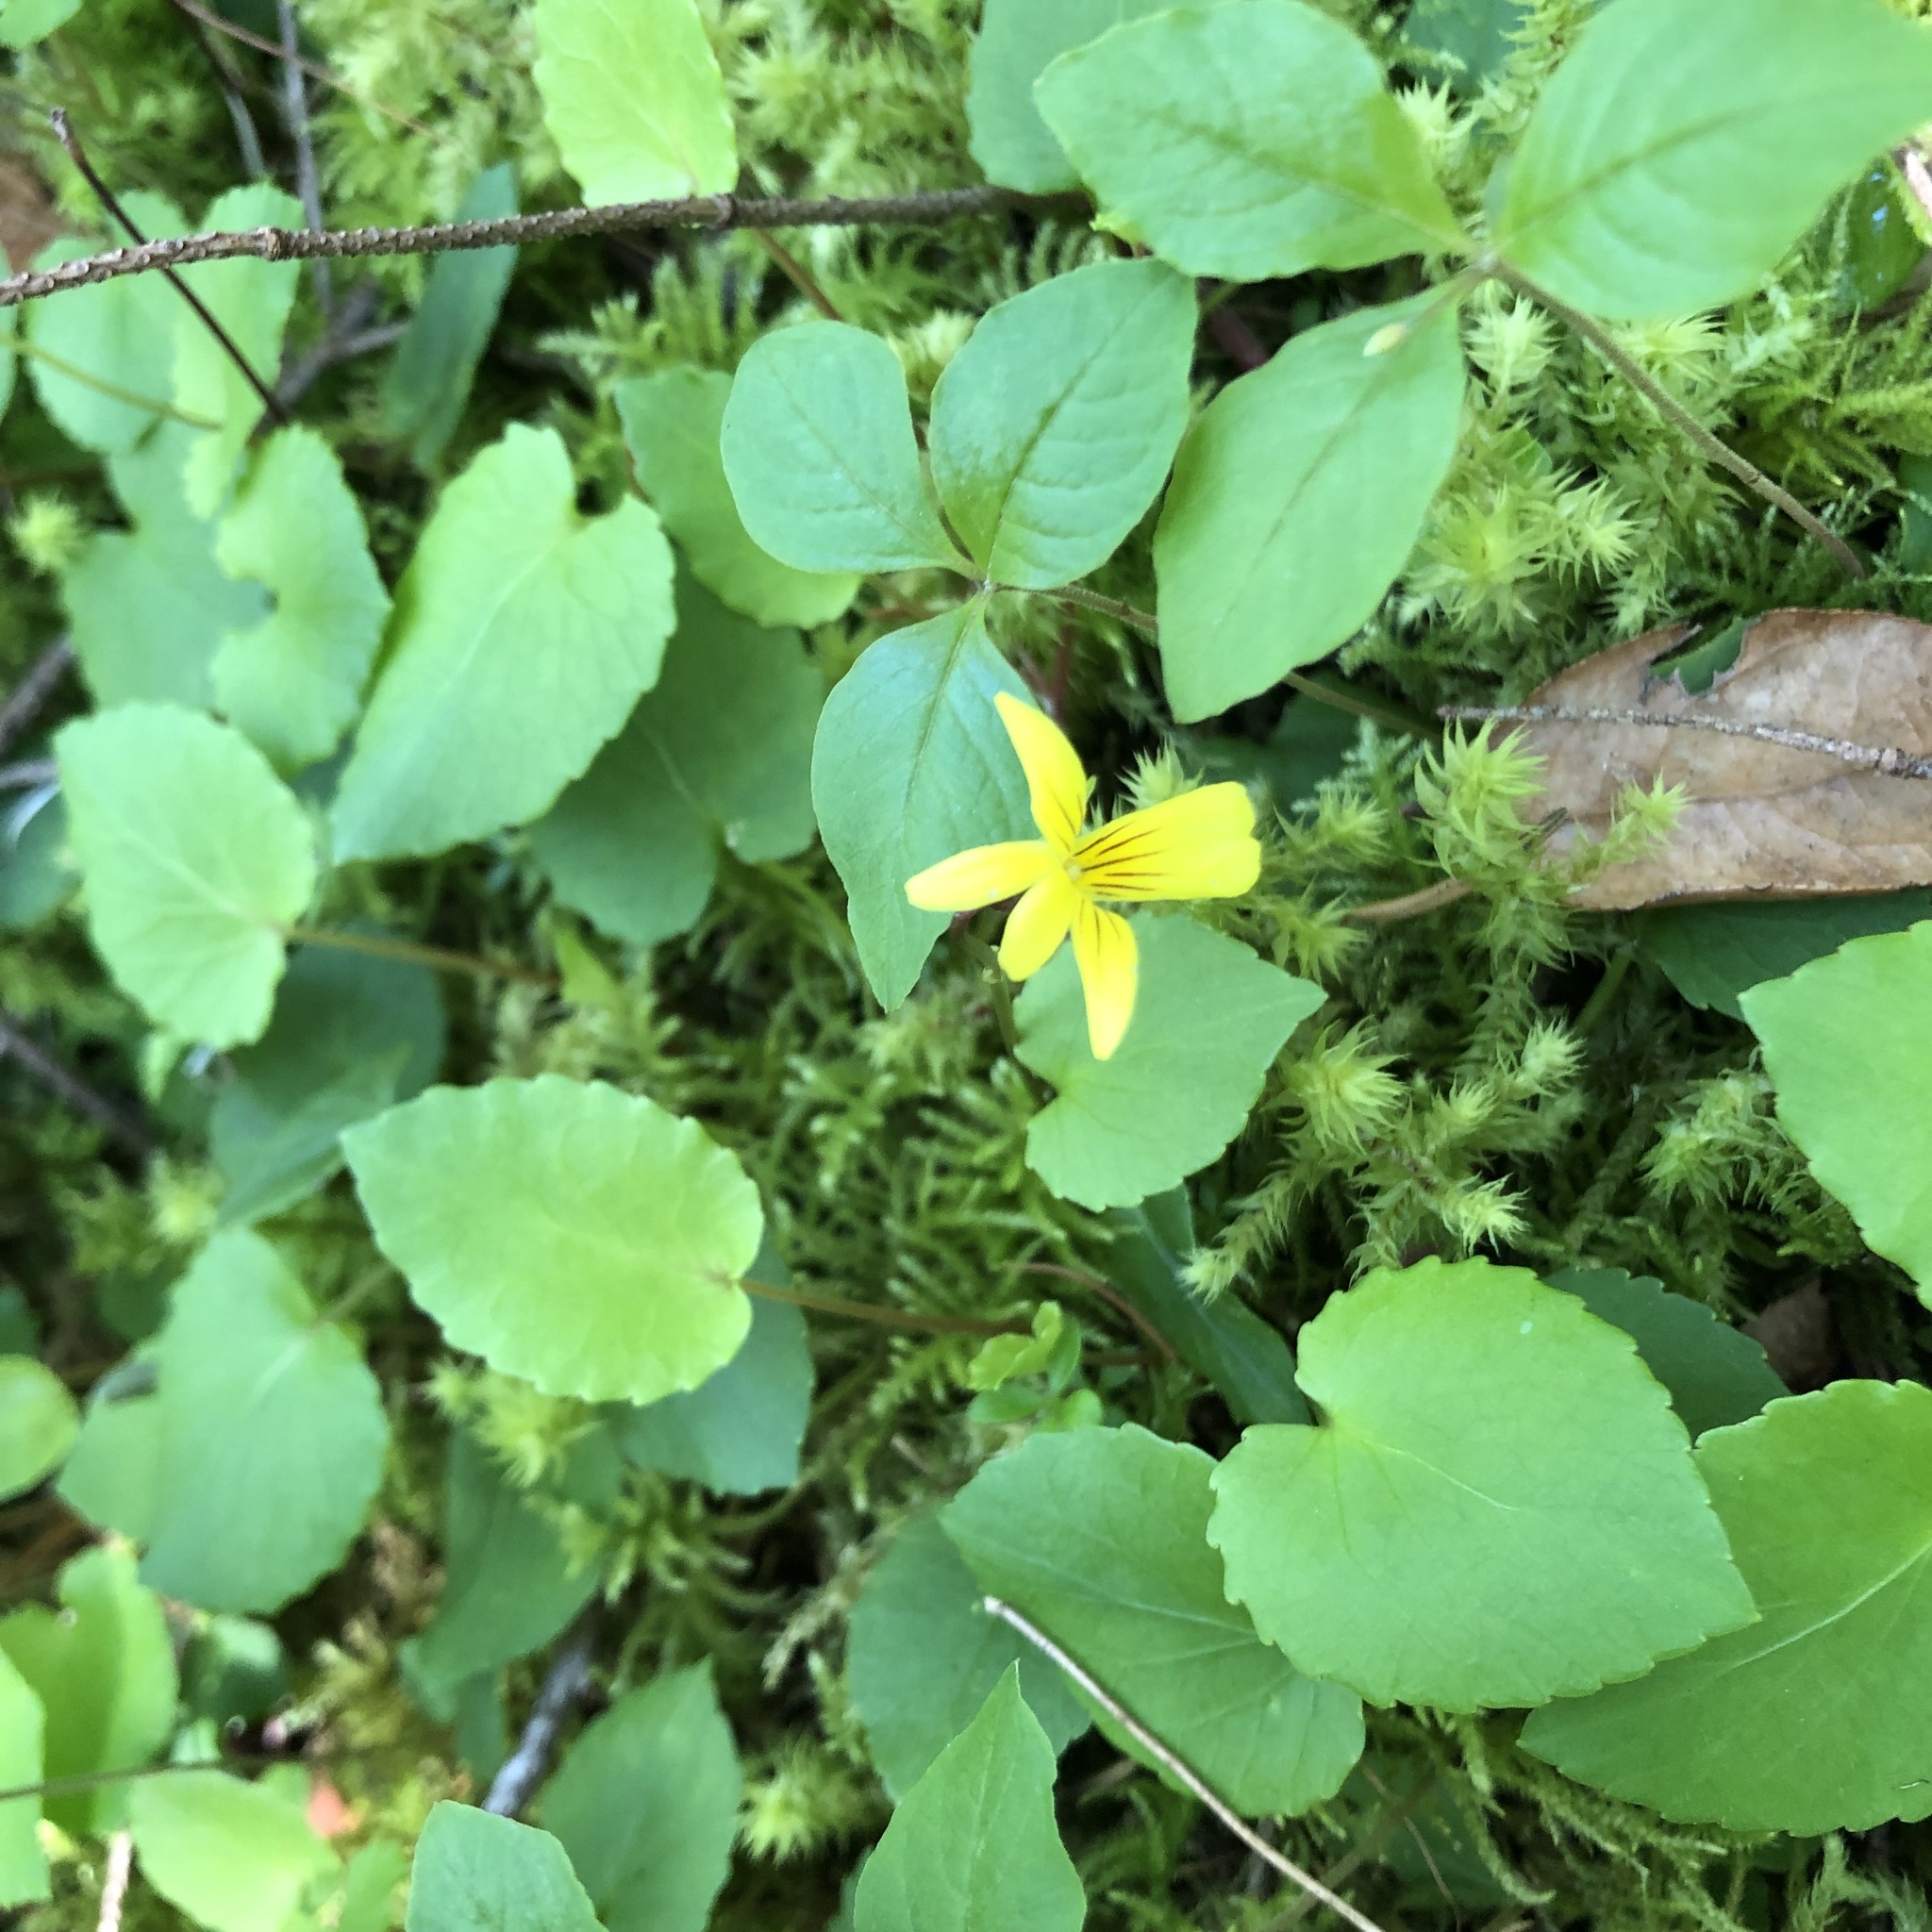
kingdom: Plantae
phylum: Tracheophyta
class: Magnoliopsida
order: Malpighiales
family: Violaceae
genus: Viola
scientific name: Viola sempervirens
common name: Evergreen violet
